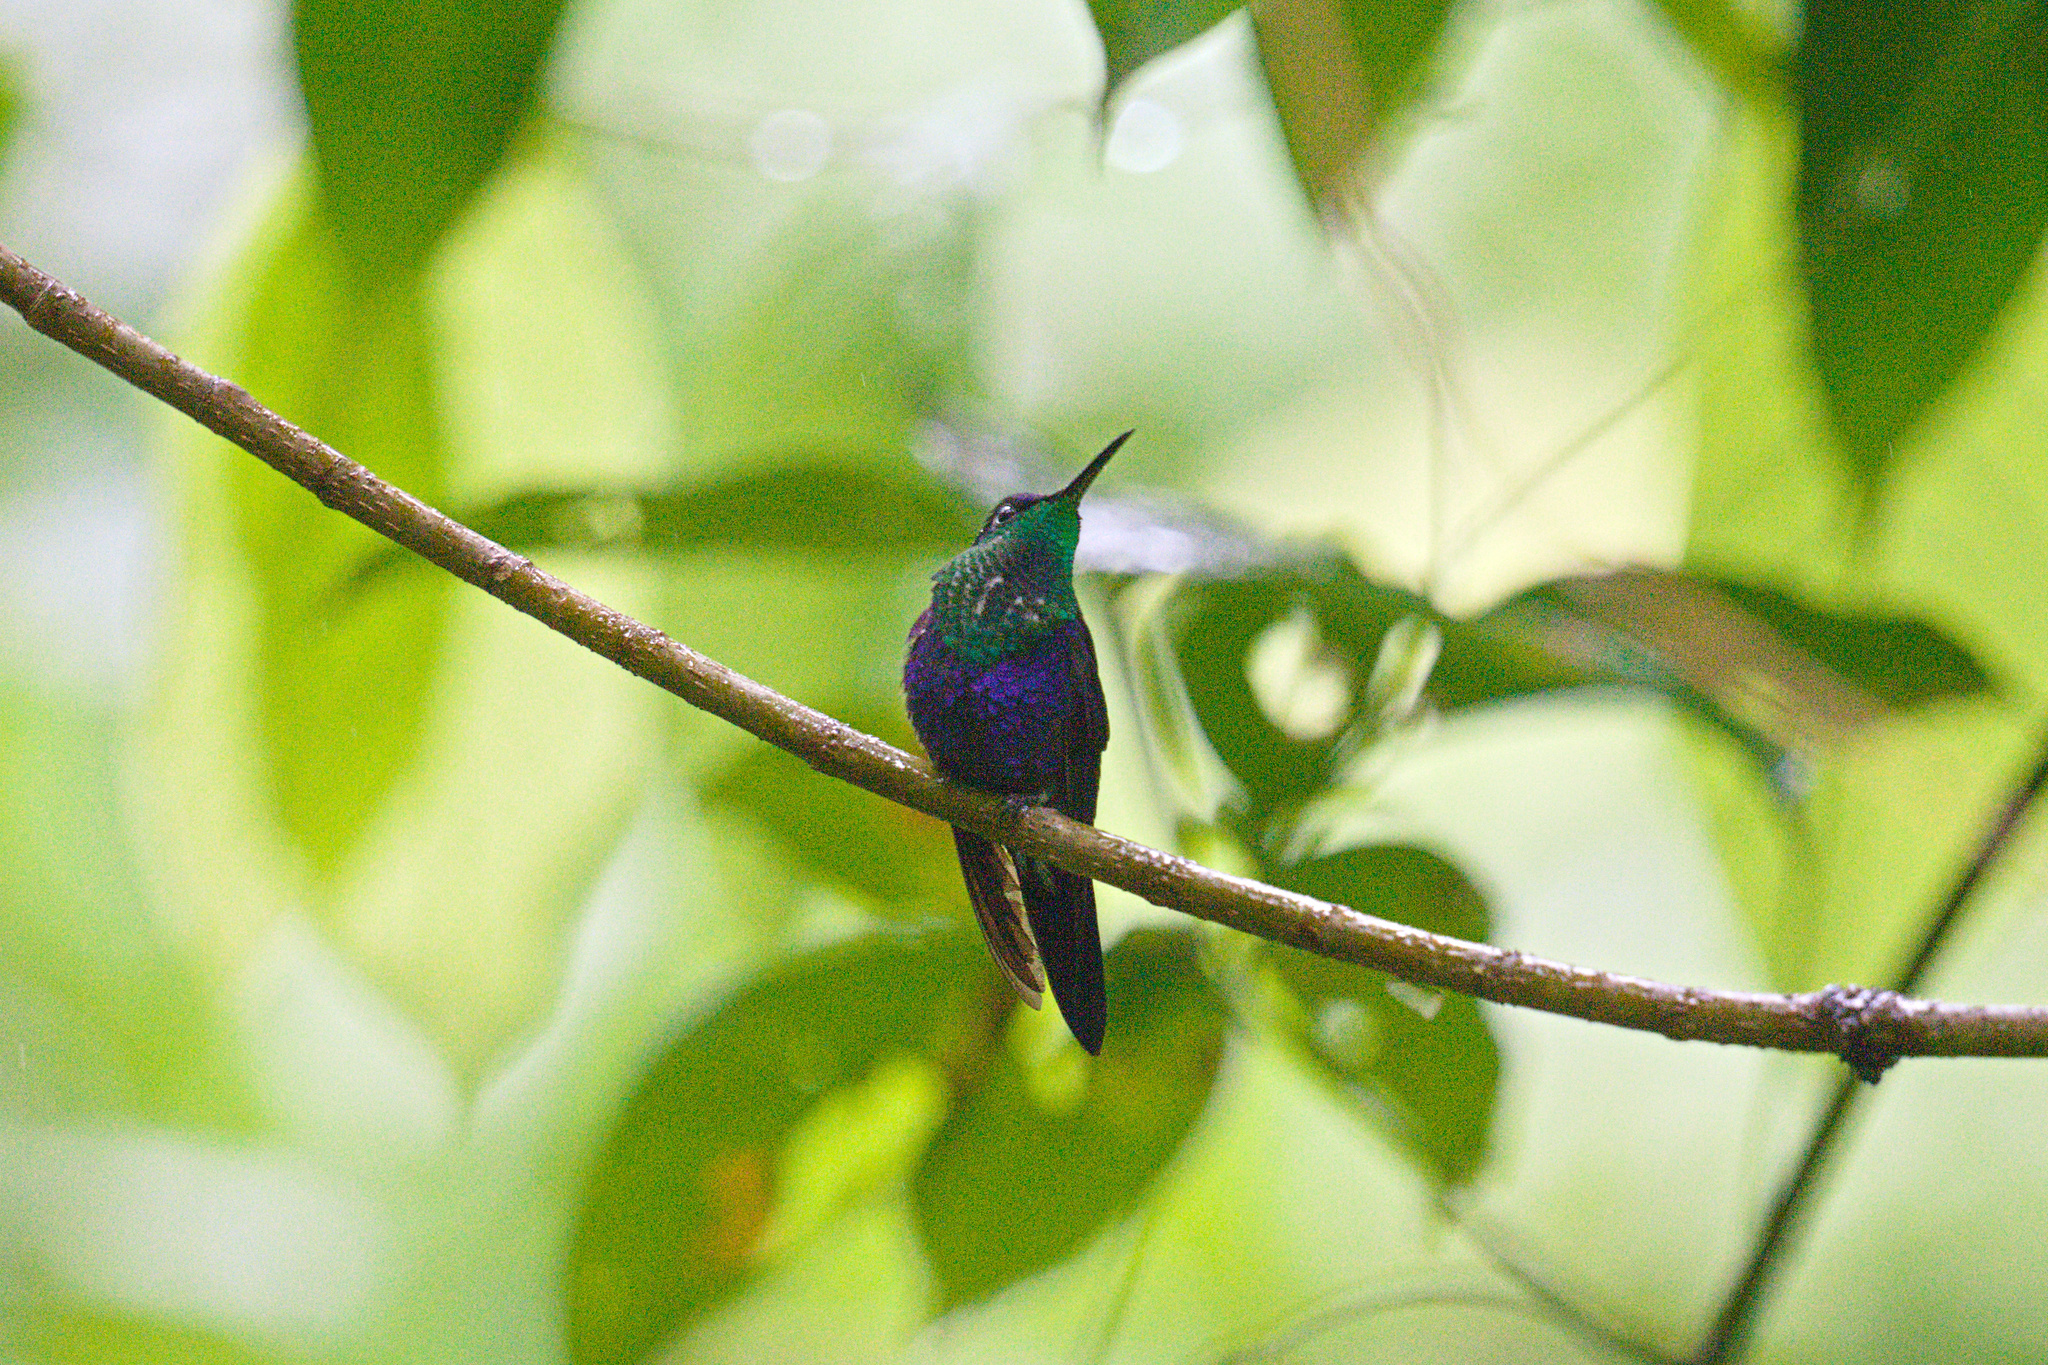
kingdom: Animalia
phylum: Chordata
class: Aves
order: Apodiformes
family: Trochilidae
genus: Thalurania
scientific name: Thalurania colombica
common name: Crowned woodnymph
